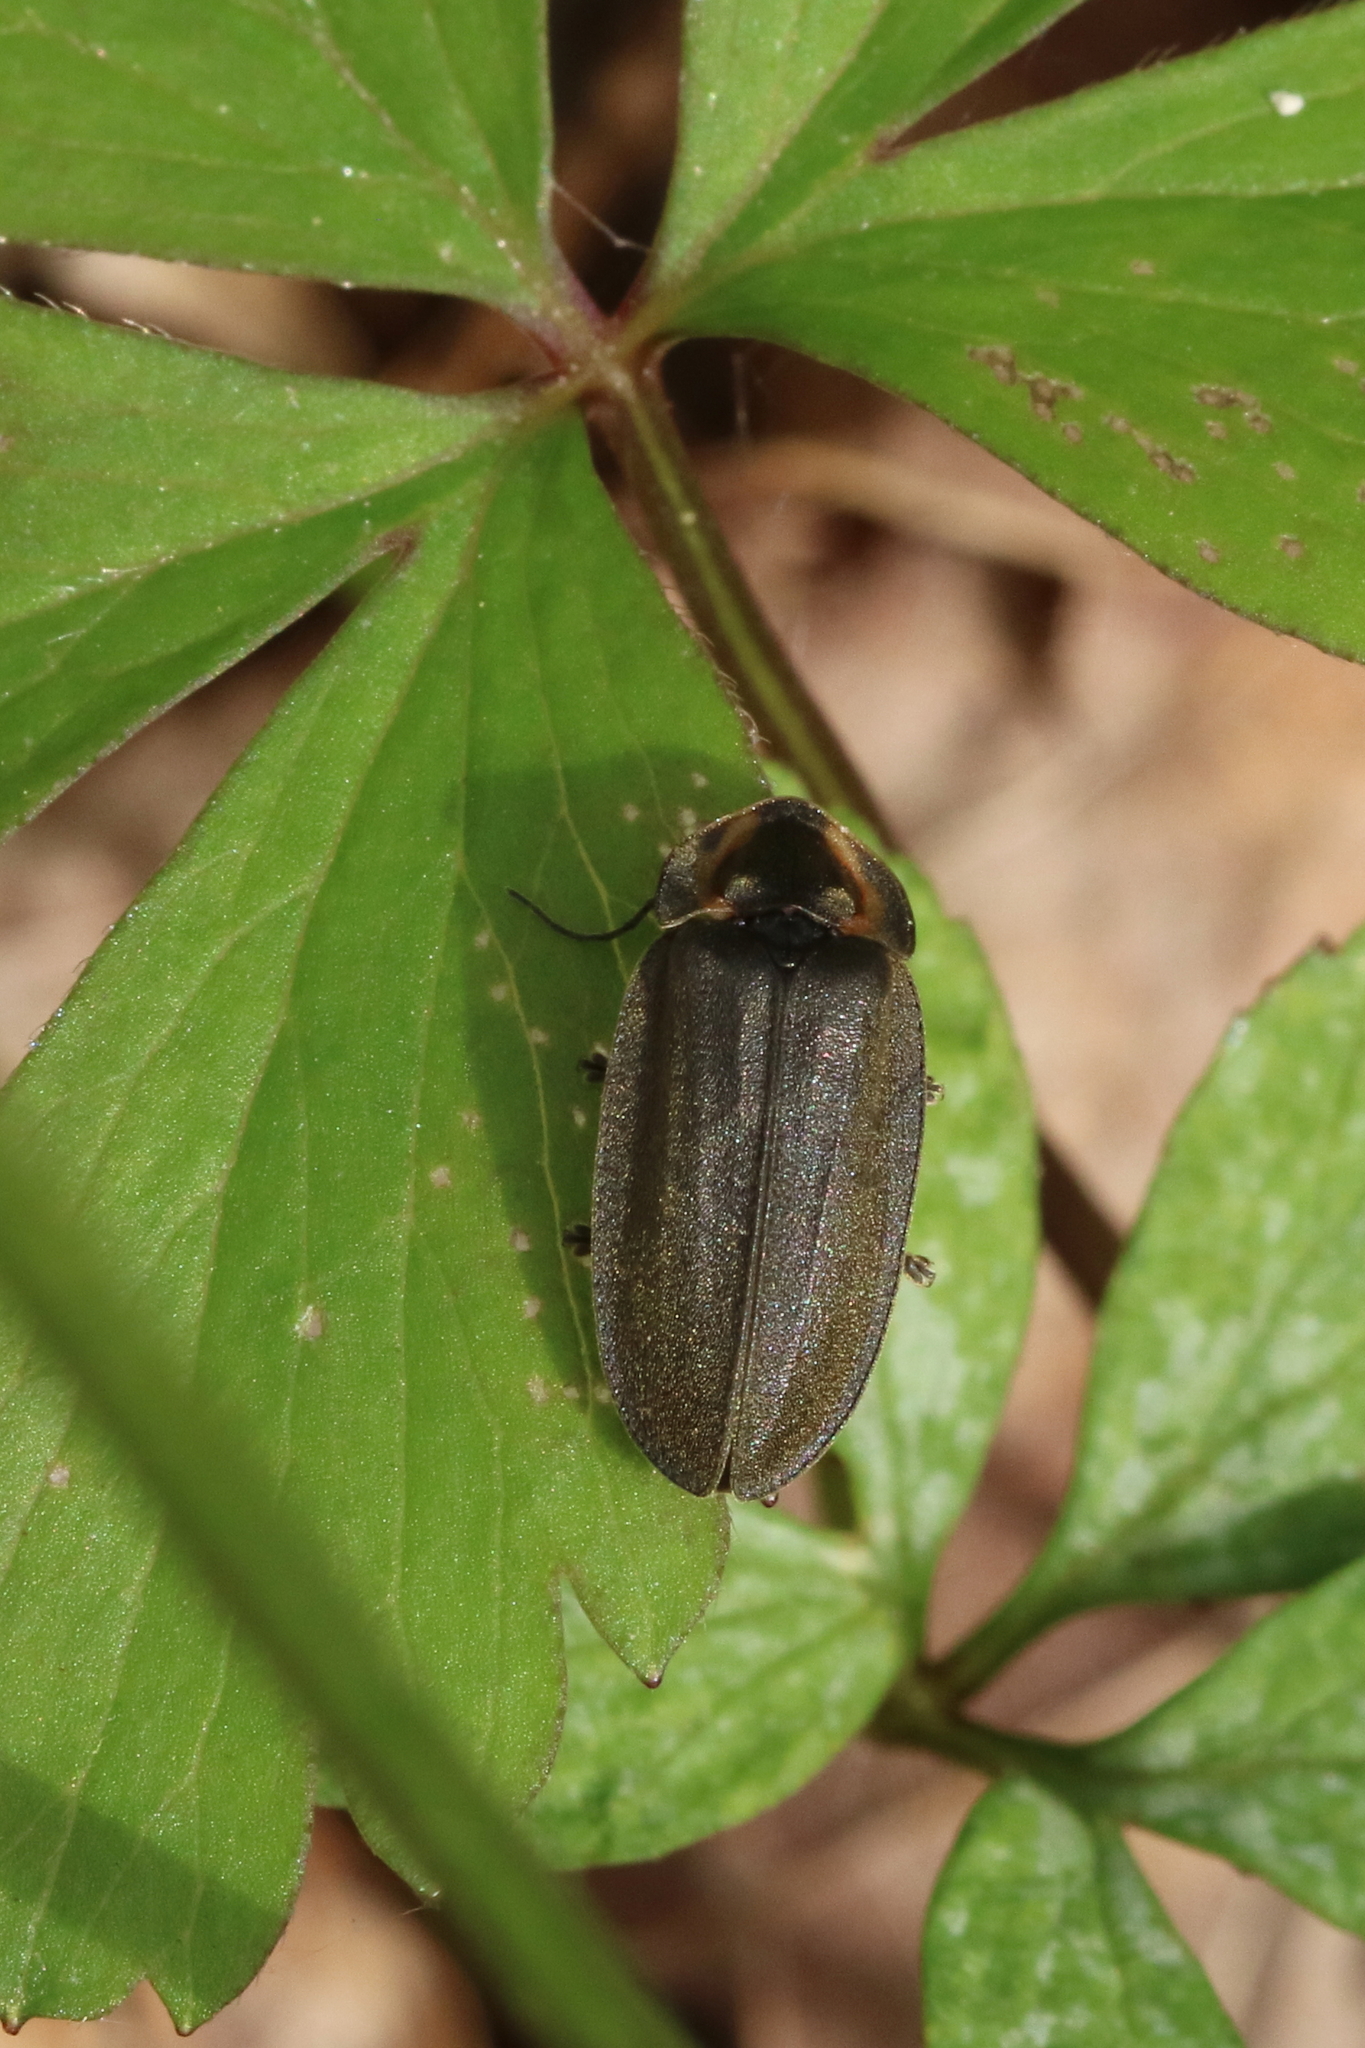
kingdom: Animalia
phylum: Arthropoda
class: Insecta
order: Coleoptera
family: Lampyridae
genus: Photinus
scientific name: Photinus corrusca
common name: Winter firefly
